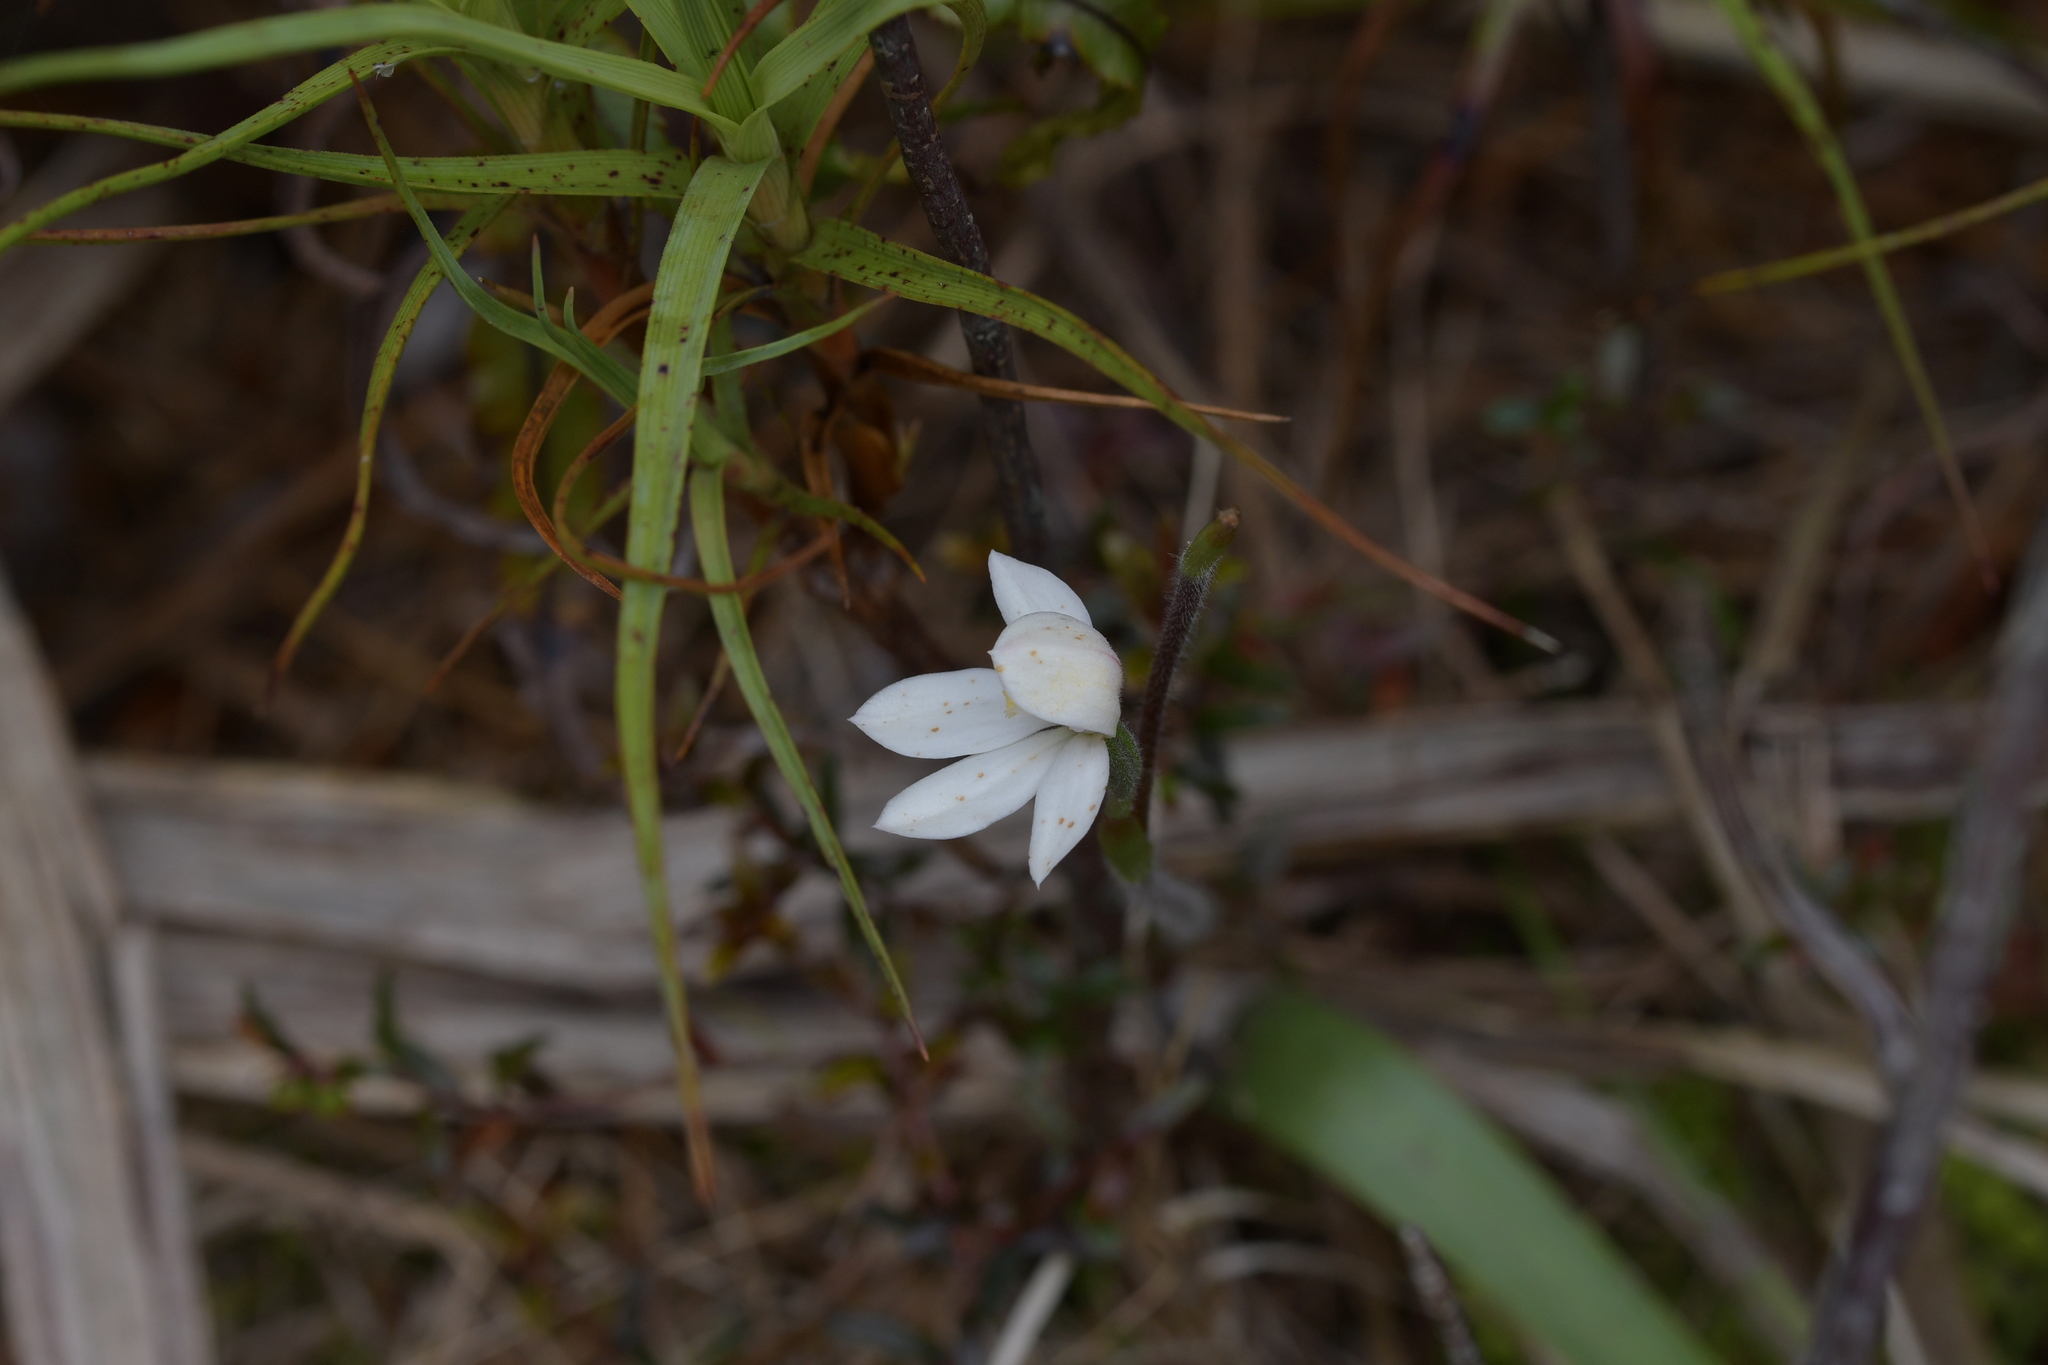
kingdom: Plantae
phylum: Tracheophyta
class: Liliopsida
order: Asparagales
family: Orchidaceae
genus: Caladenia
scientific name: Caladenia lyallii
